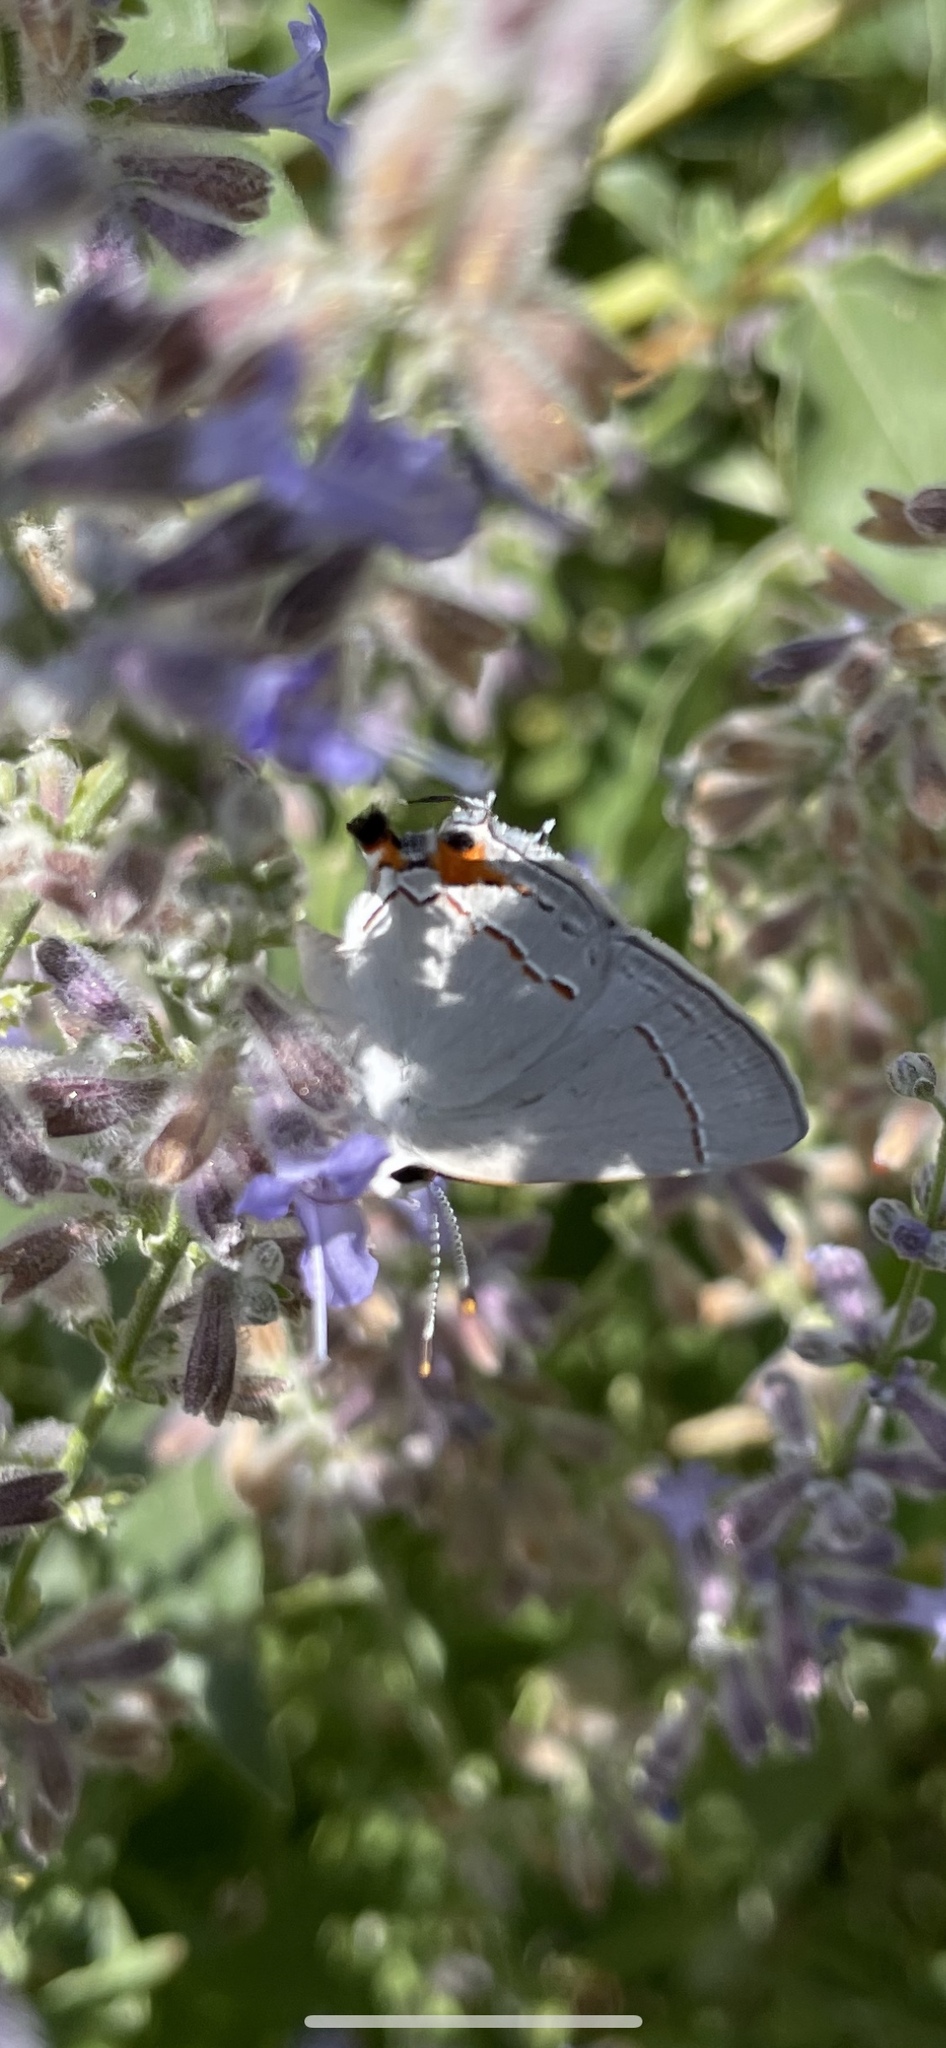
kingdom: Animalia
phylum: Arthropoda
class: Insecta
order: Lepidoptera
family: Lycaenidae
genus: Strymon
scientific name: Strymon melinus
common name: Gray hairstreak
